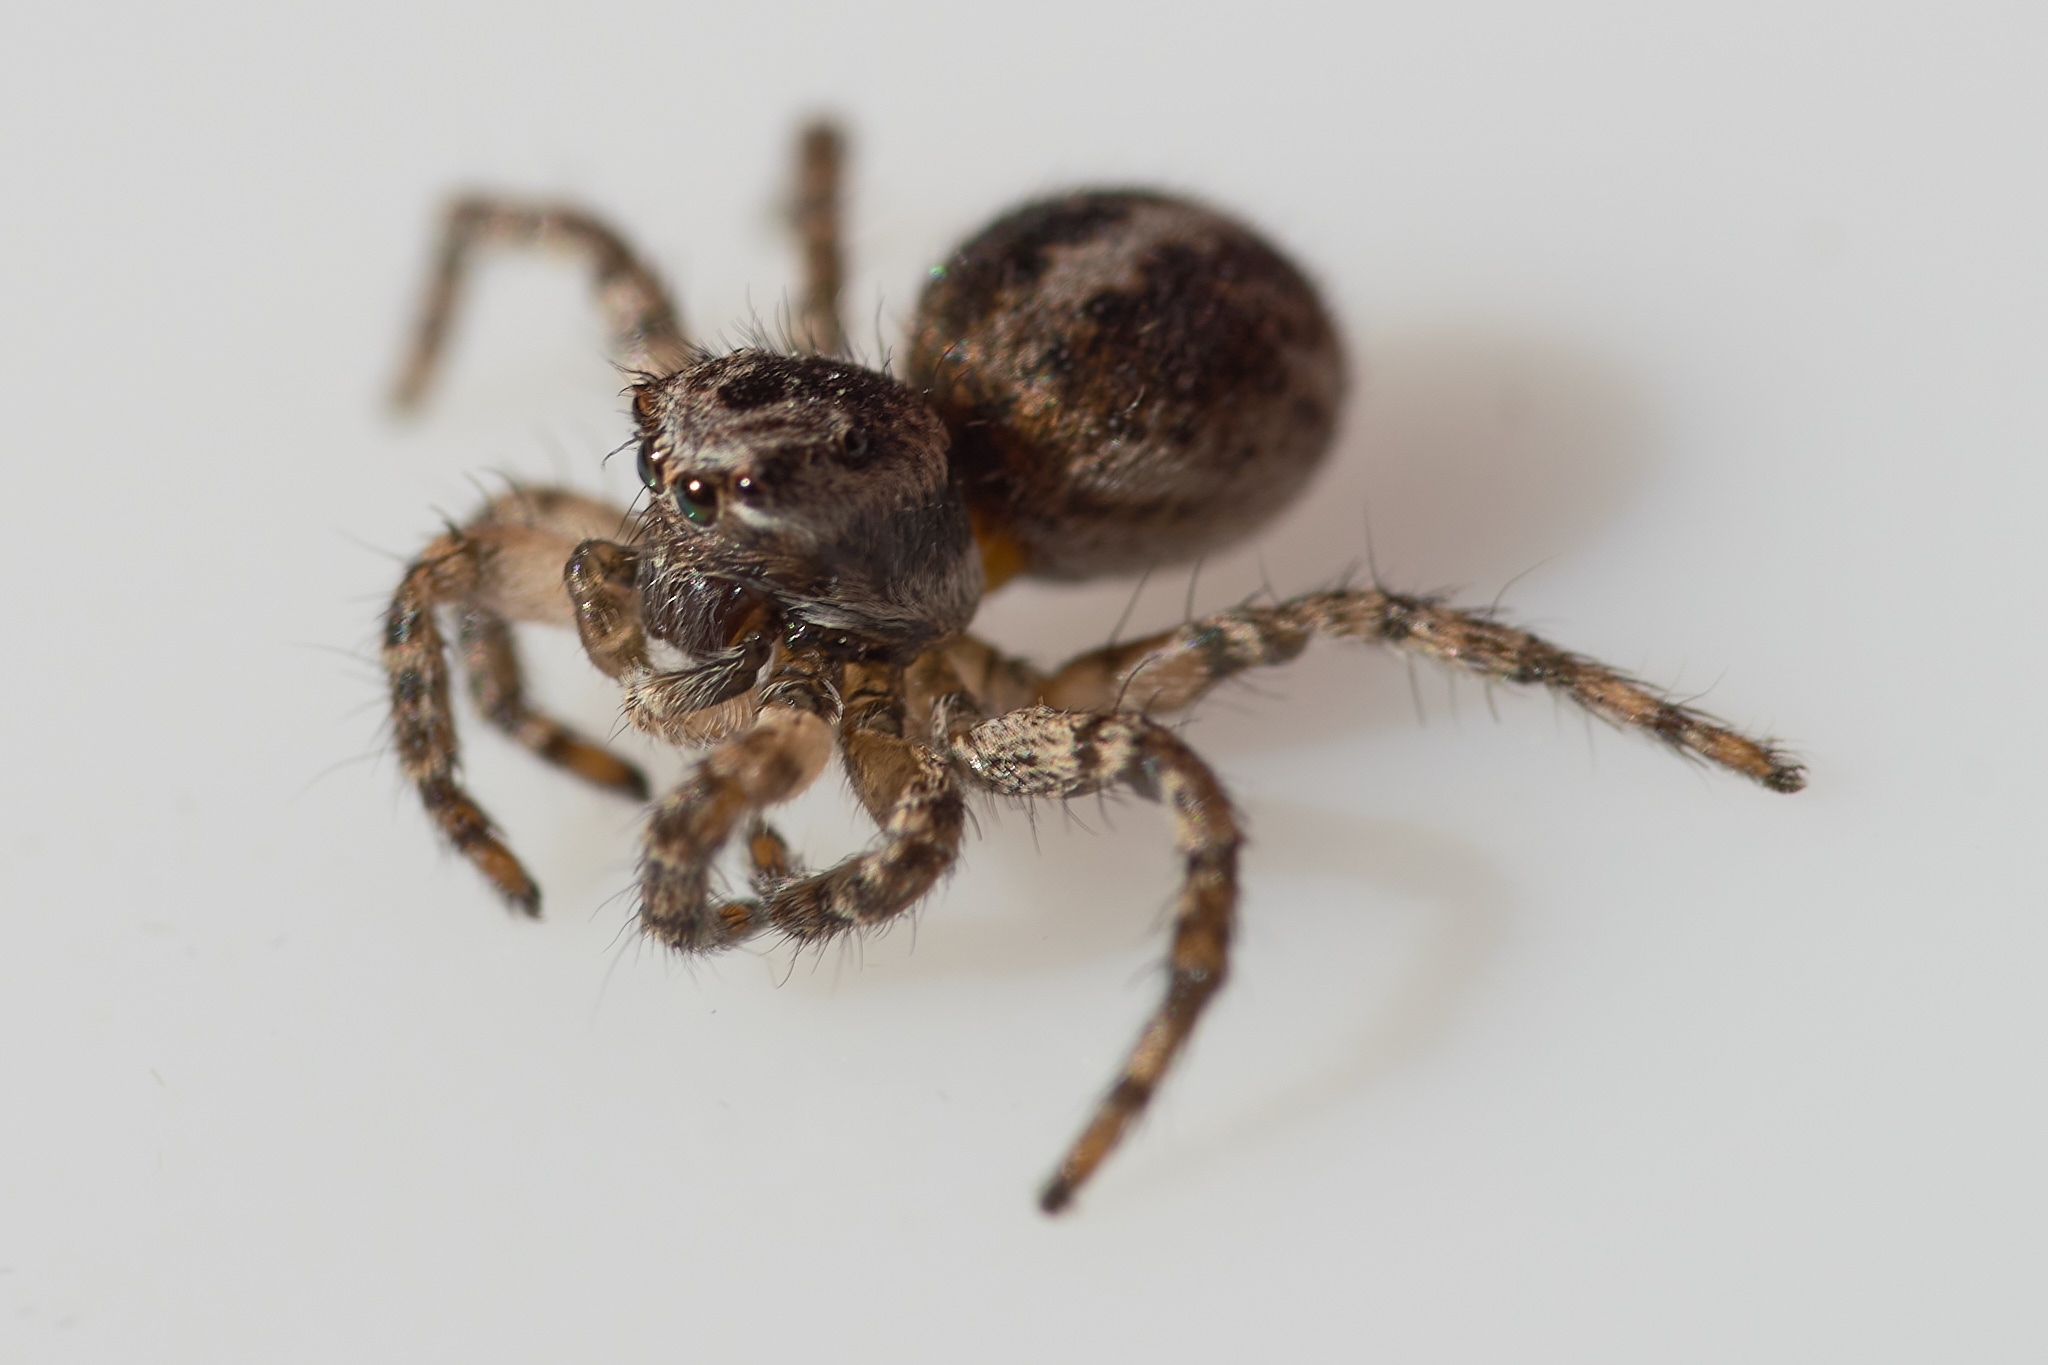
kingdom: Animalia
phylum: Arthropoda
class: Arachnida
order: Araneae
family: Salticidae
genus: Aelurillus
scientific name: Aelurillus v-insignitus
